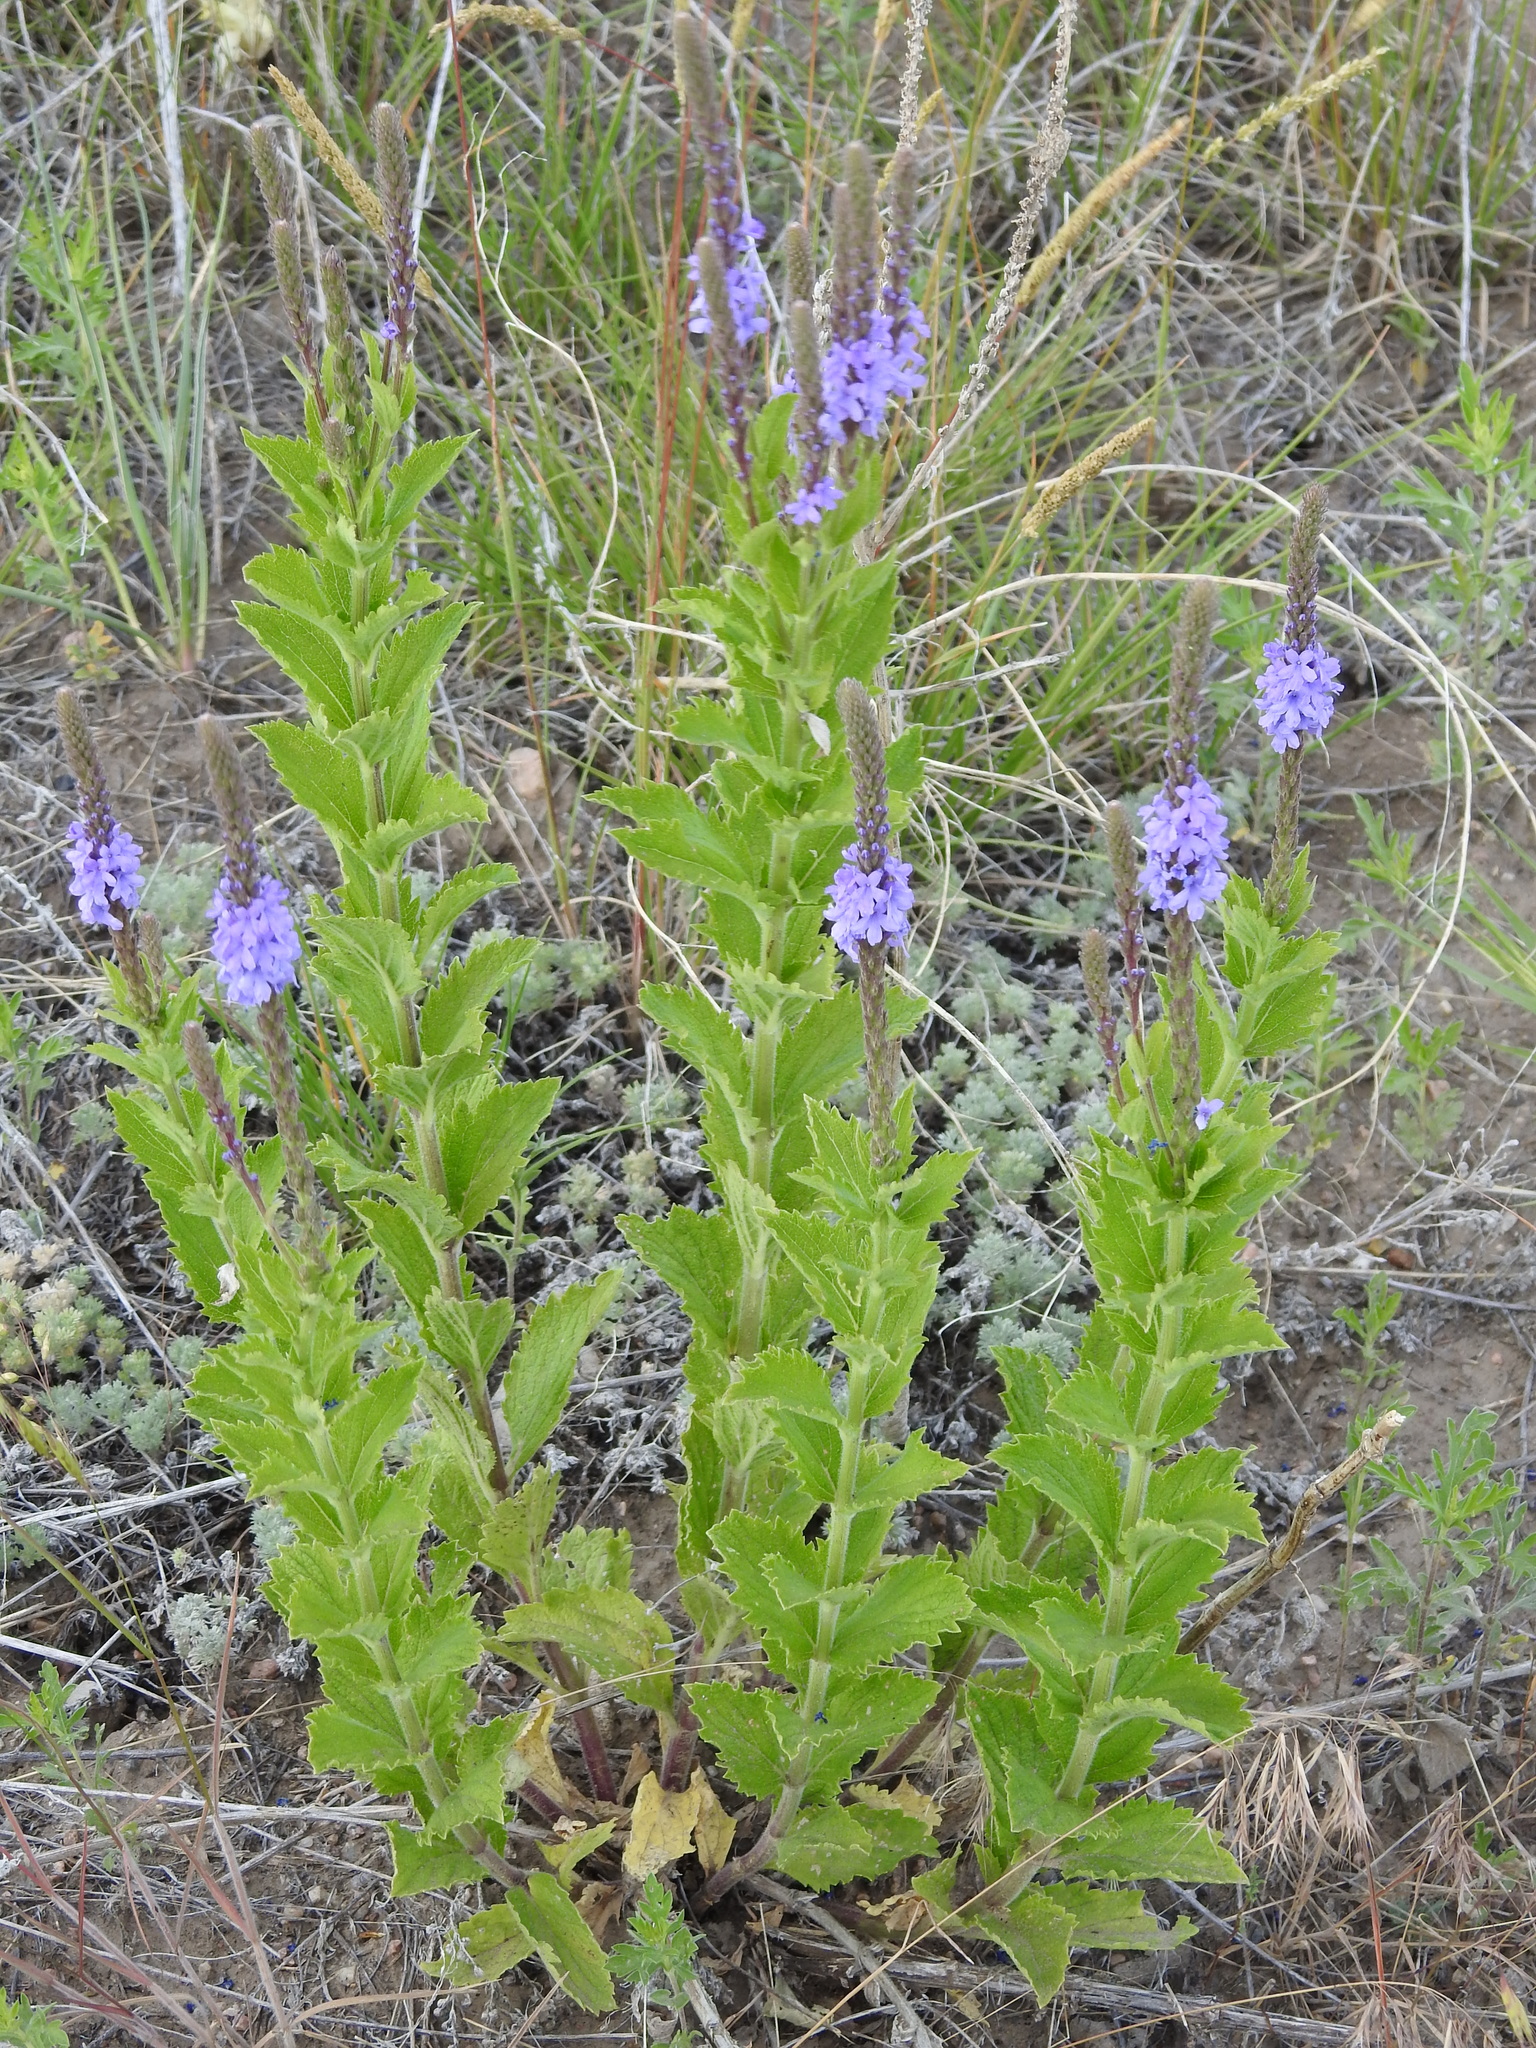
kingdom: Plantae
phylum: Tracheophyta
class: Magnoliopsida
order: Lamiales
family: Verbenaceae
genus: Verbena
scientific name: Verbena stricta
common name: Hoary vervain
